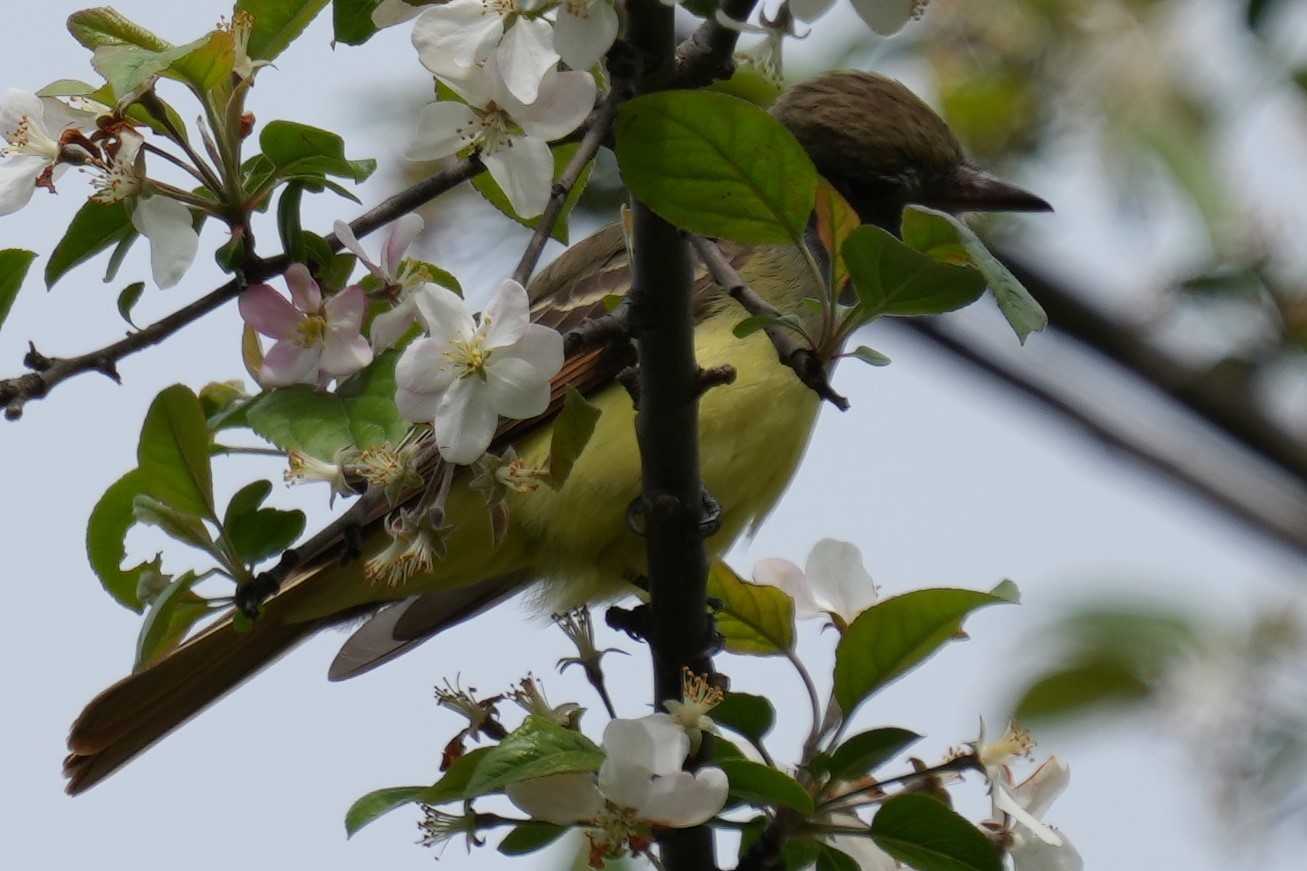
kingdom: Animalia
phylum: Chordata
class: Aves
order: Passeriformes
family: Tyrannidae
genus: Myiarchus
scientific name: Myiarchus crinitus
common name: Great crested flycatcher
